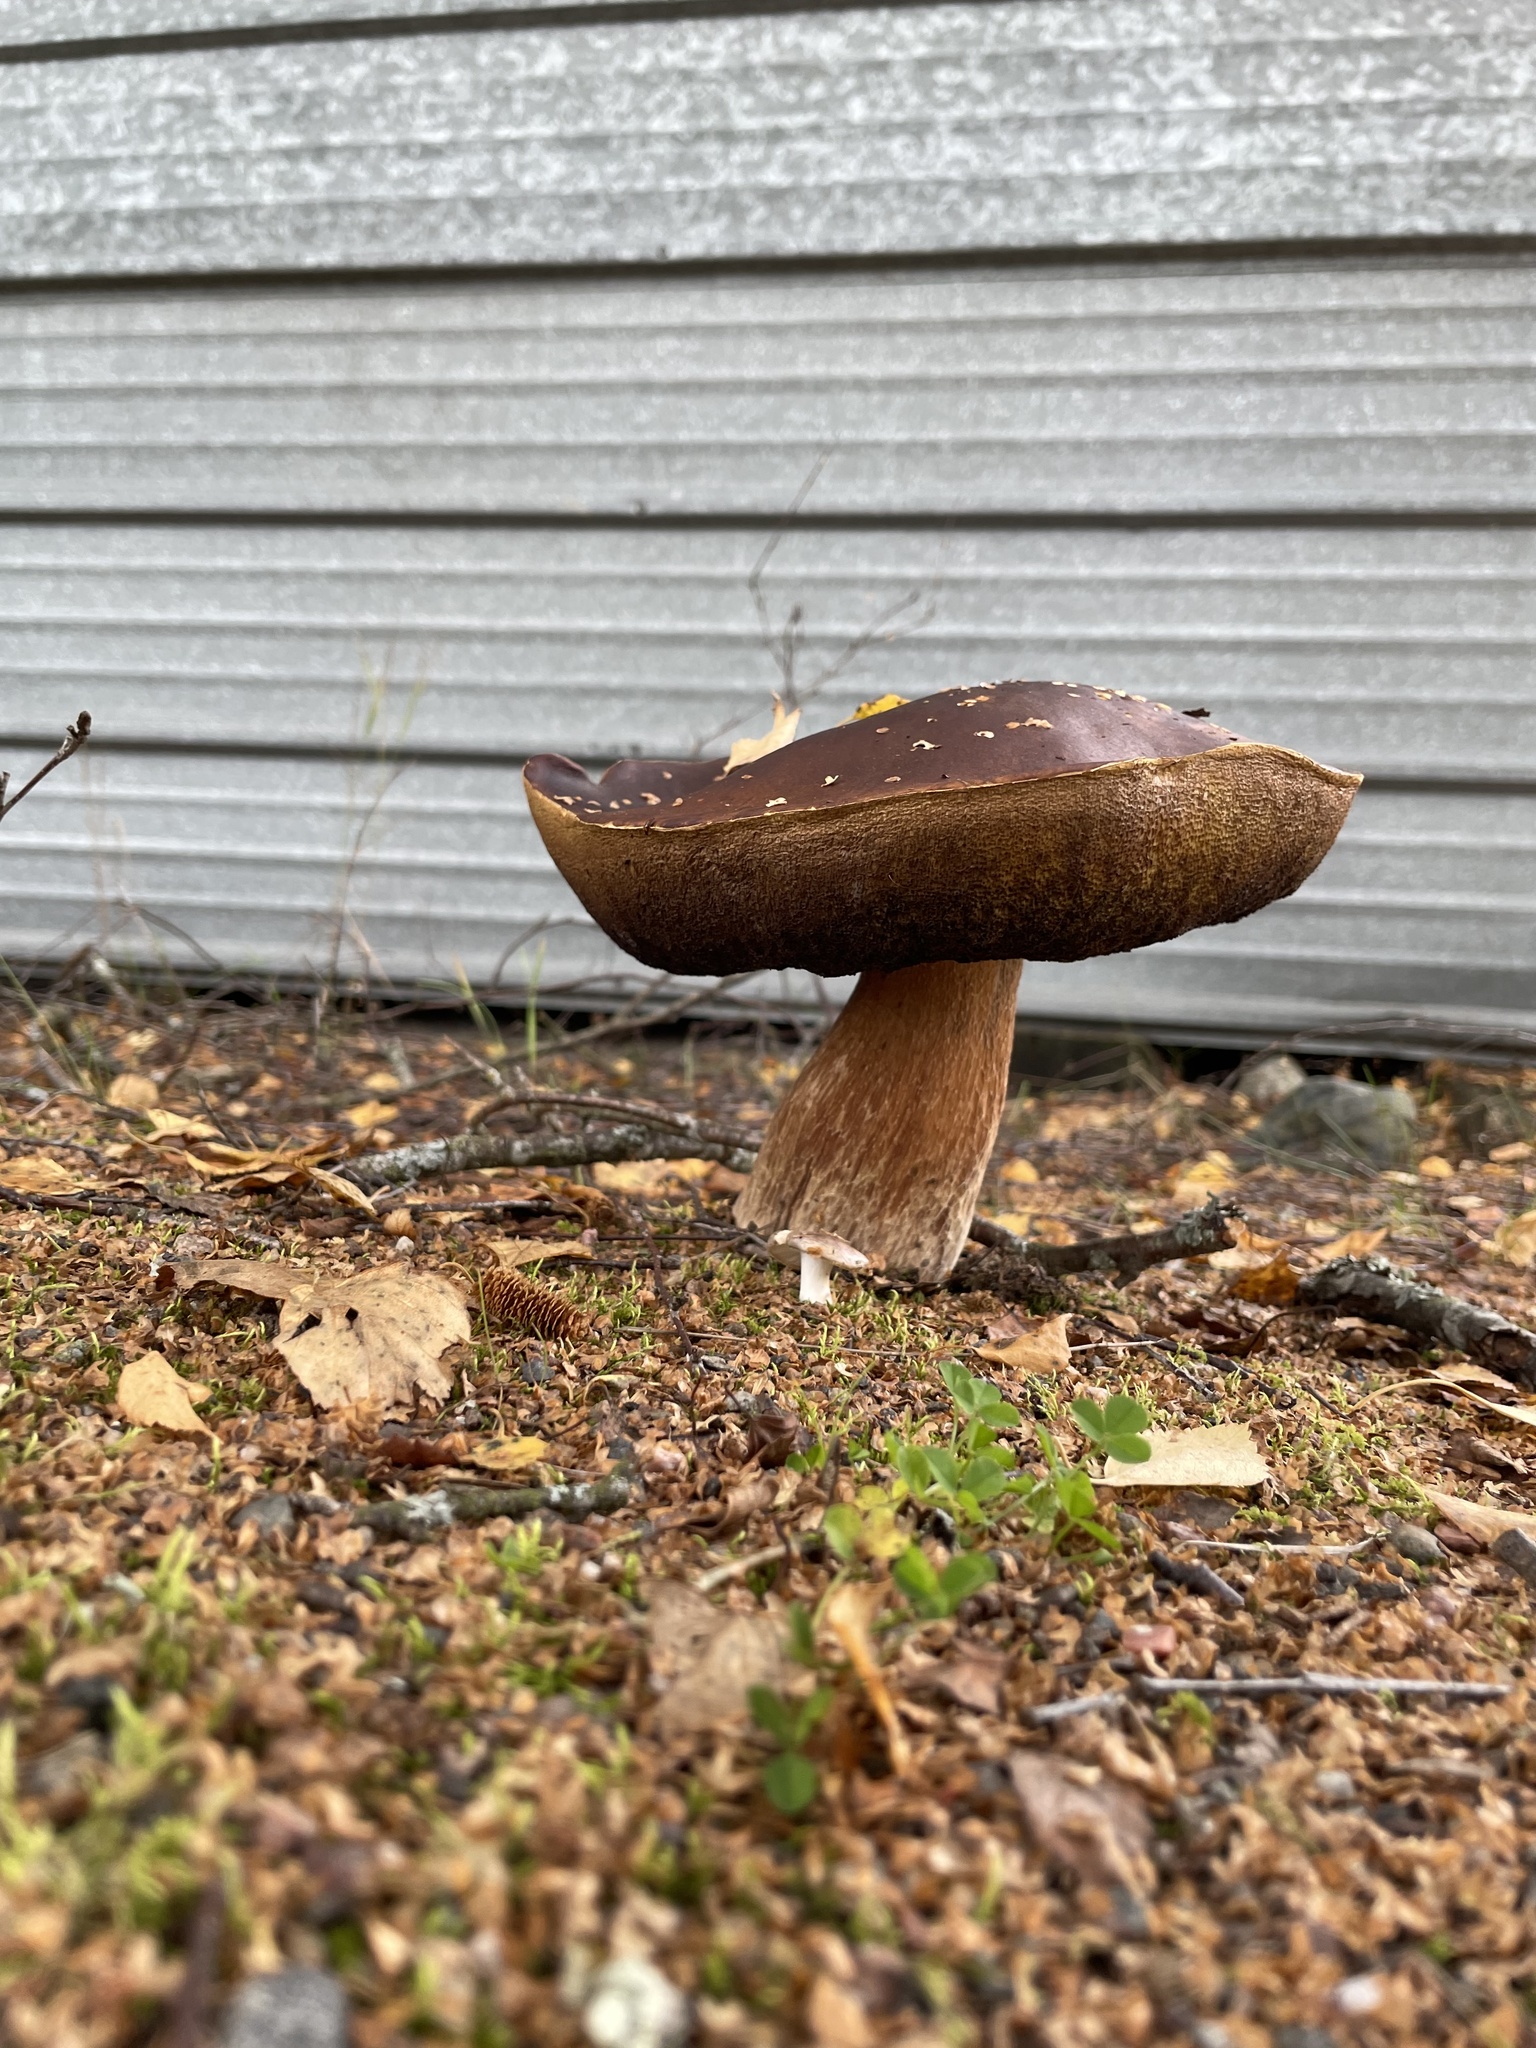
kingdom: Fungi
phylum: Basidiomycota
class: Agaricomycetes
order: Boletales
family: Boletaceae
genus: Boletus
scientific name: Boletus edulis
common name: Cep
